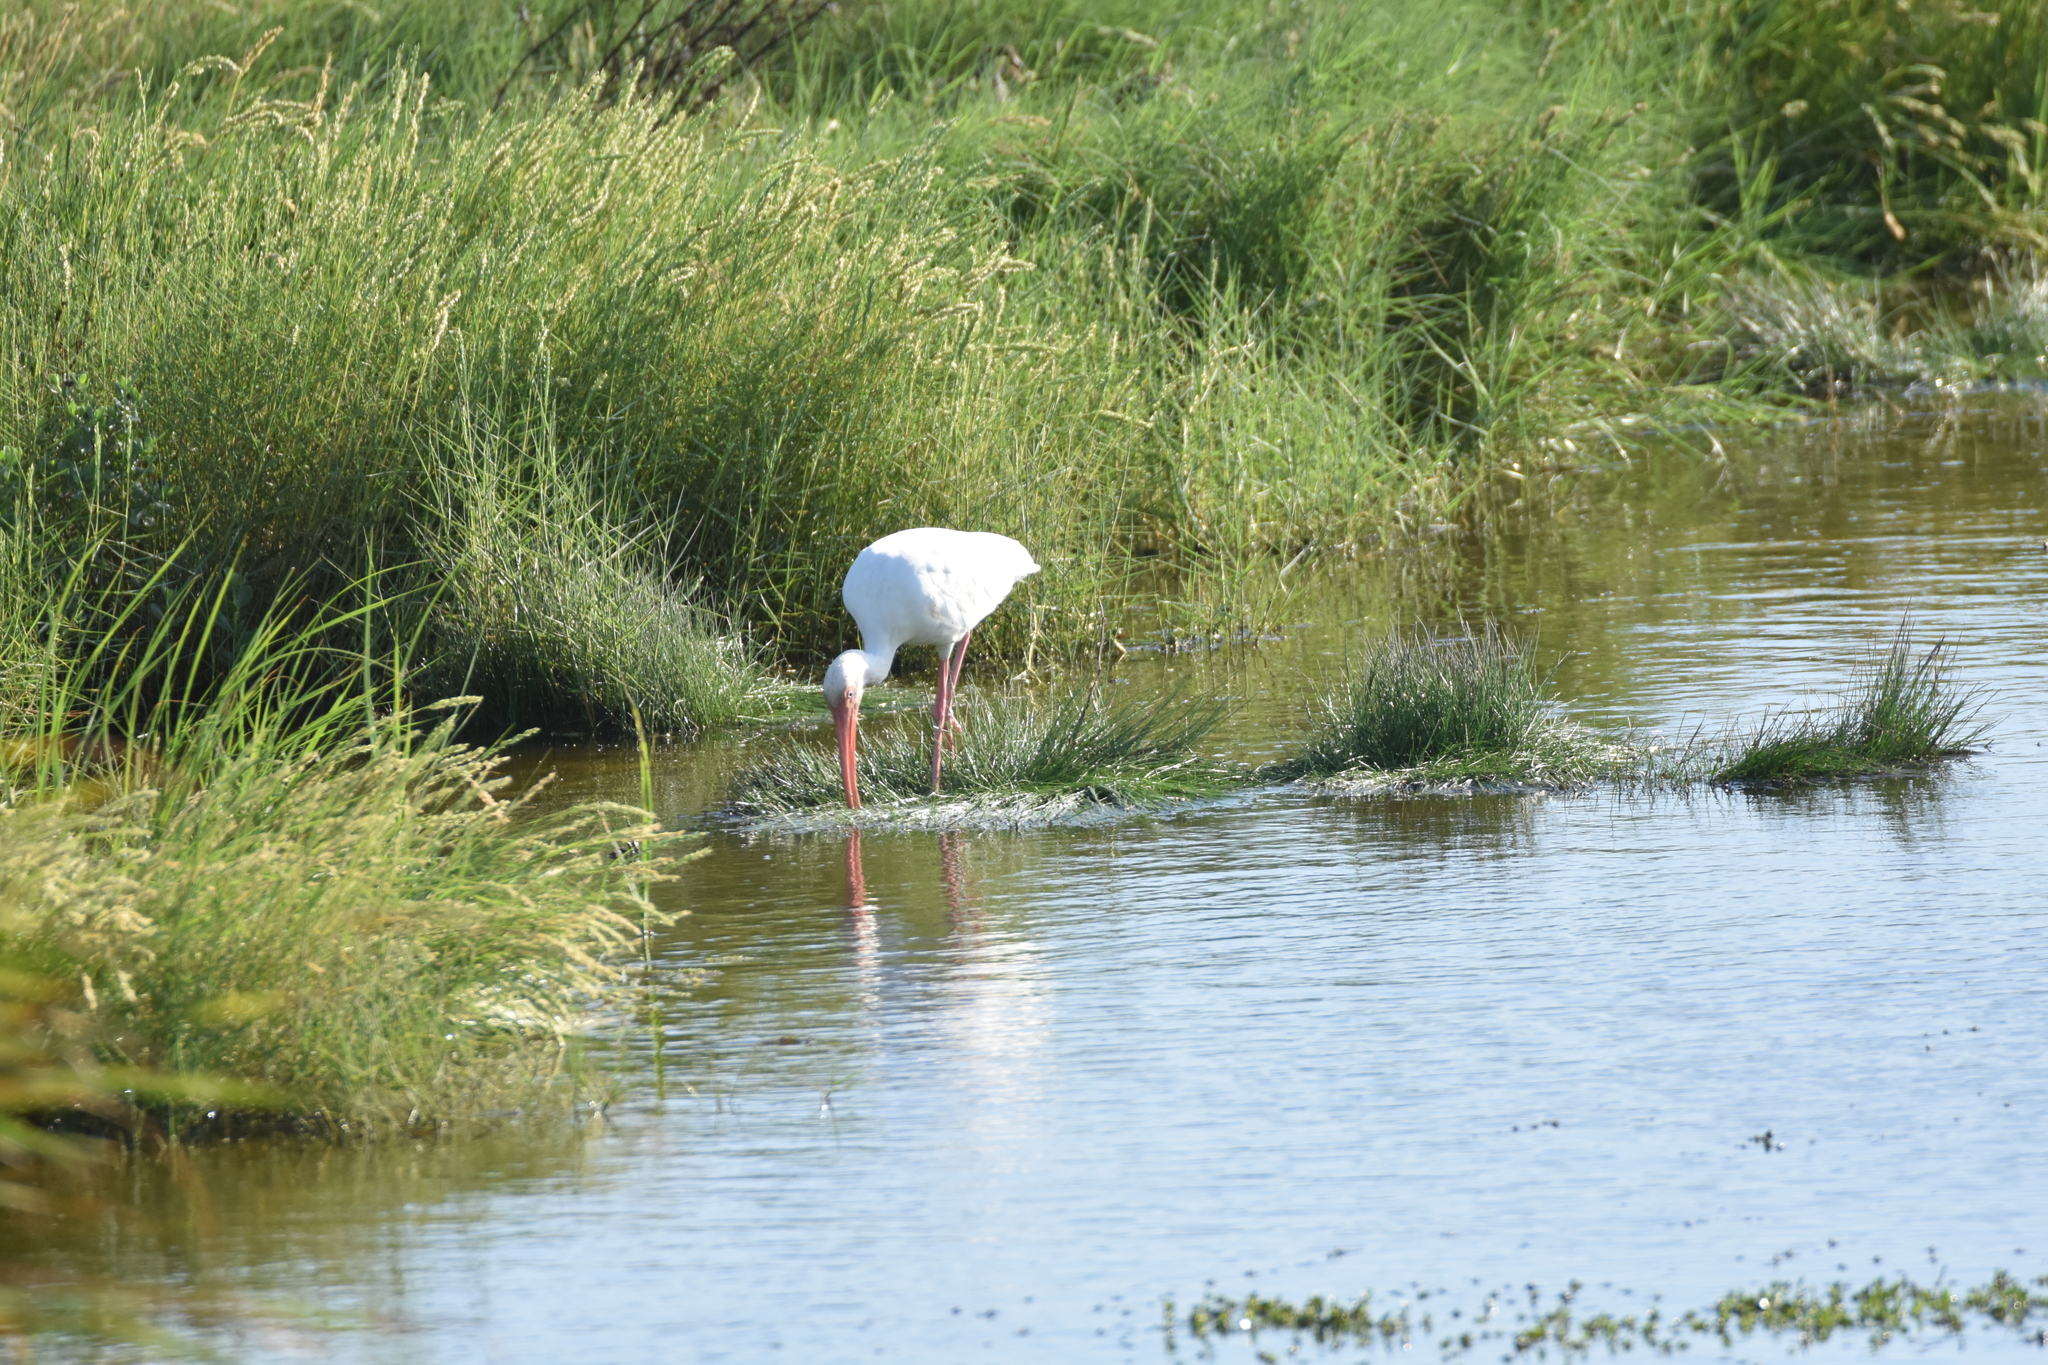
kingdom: Animalia
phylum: Chordata
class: Aves
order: Pelecaniformes
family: Threskiornithidae
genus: Eudocimus
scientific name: Eudocimus albus
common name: White ibis
